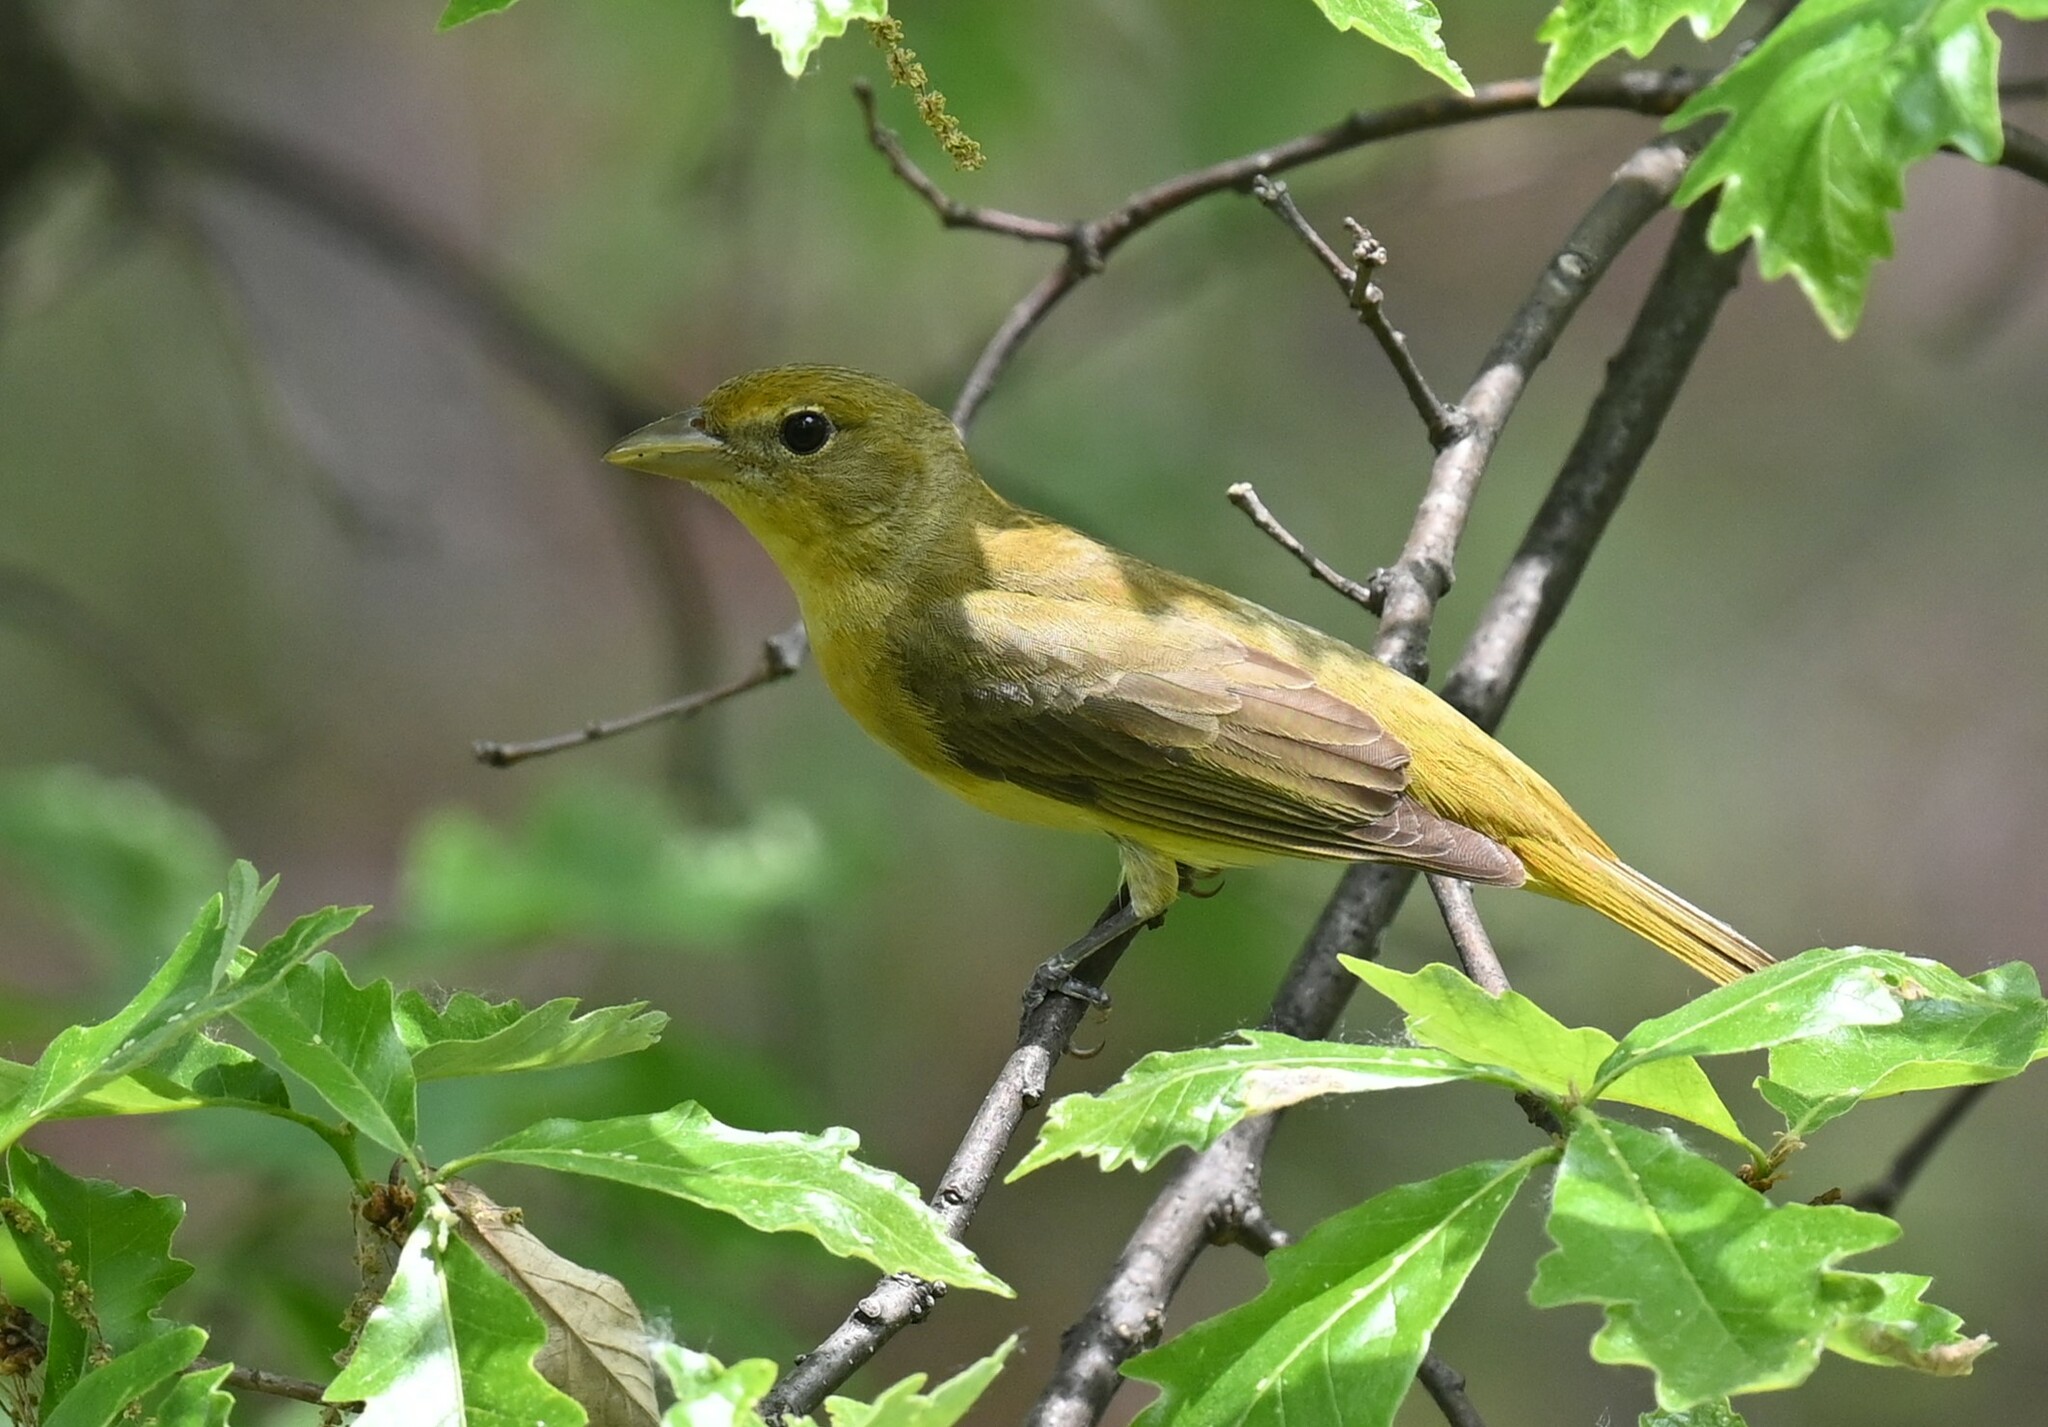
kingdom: Animalia
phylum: Chordata
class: Aves
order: Passeriformes
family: Cardinalidae
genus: Piranga
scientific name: Piranga rubra
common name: Summer tanager
